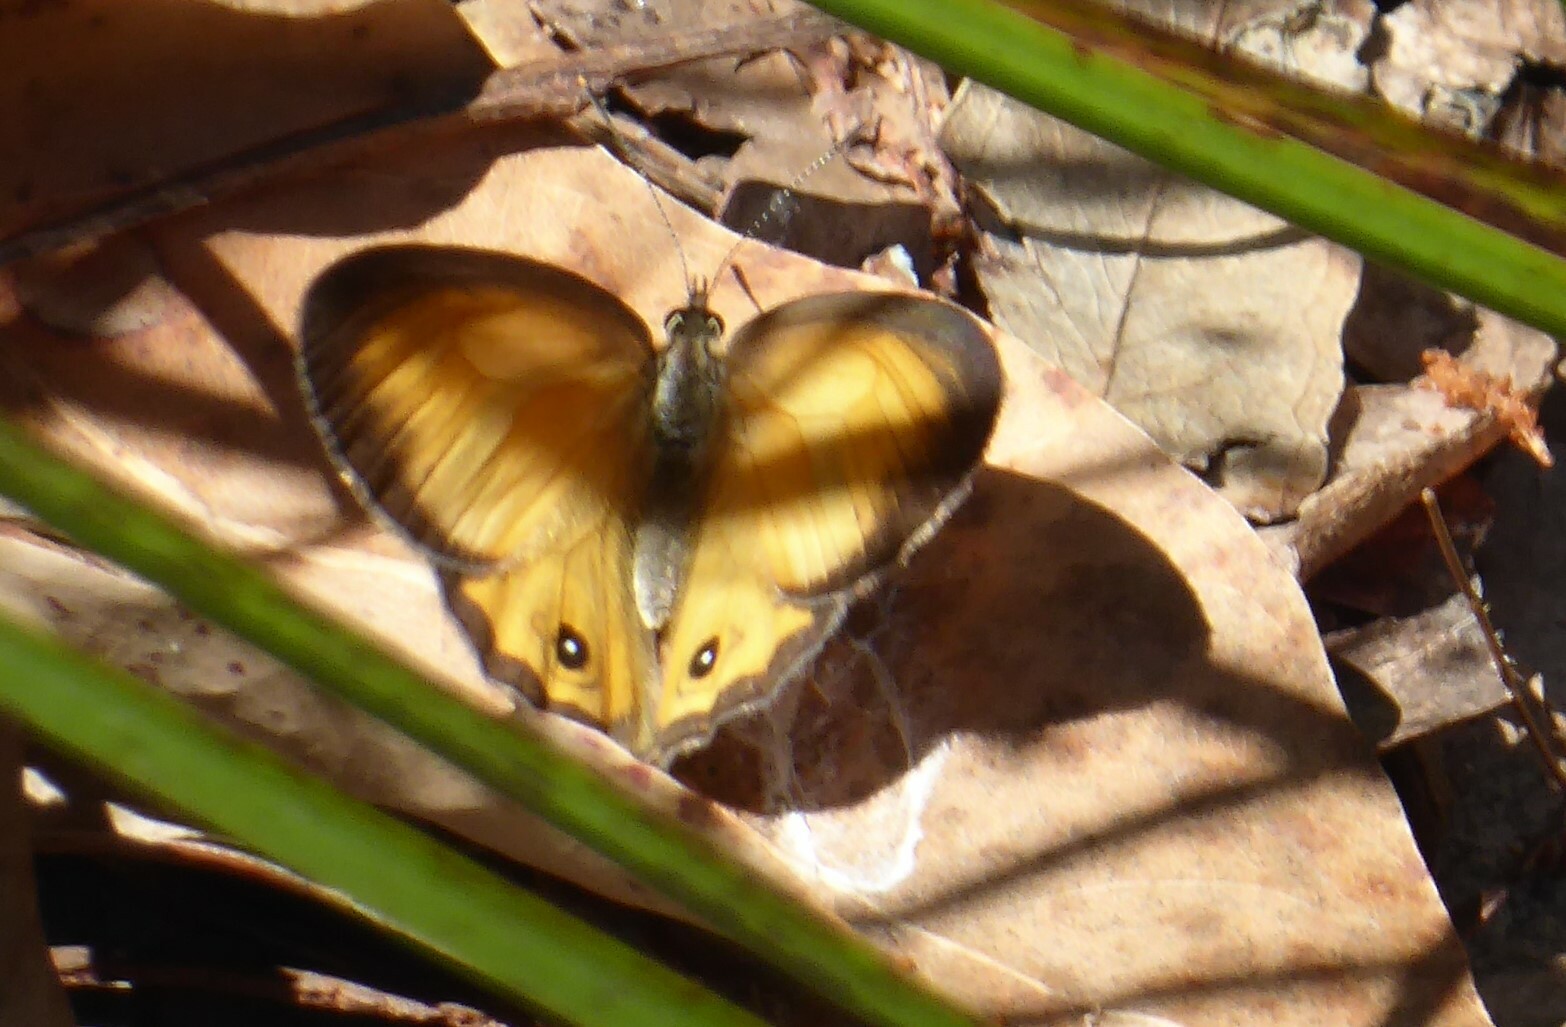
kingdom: Animalia
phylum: Arthropoda
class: Insecta
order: Lepidoptera
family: Nymphalidae
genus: Hypocysta
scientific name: Hypocysta adiante
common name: Orange ringlet
